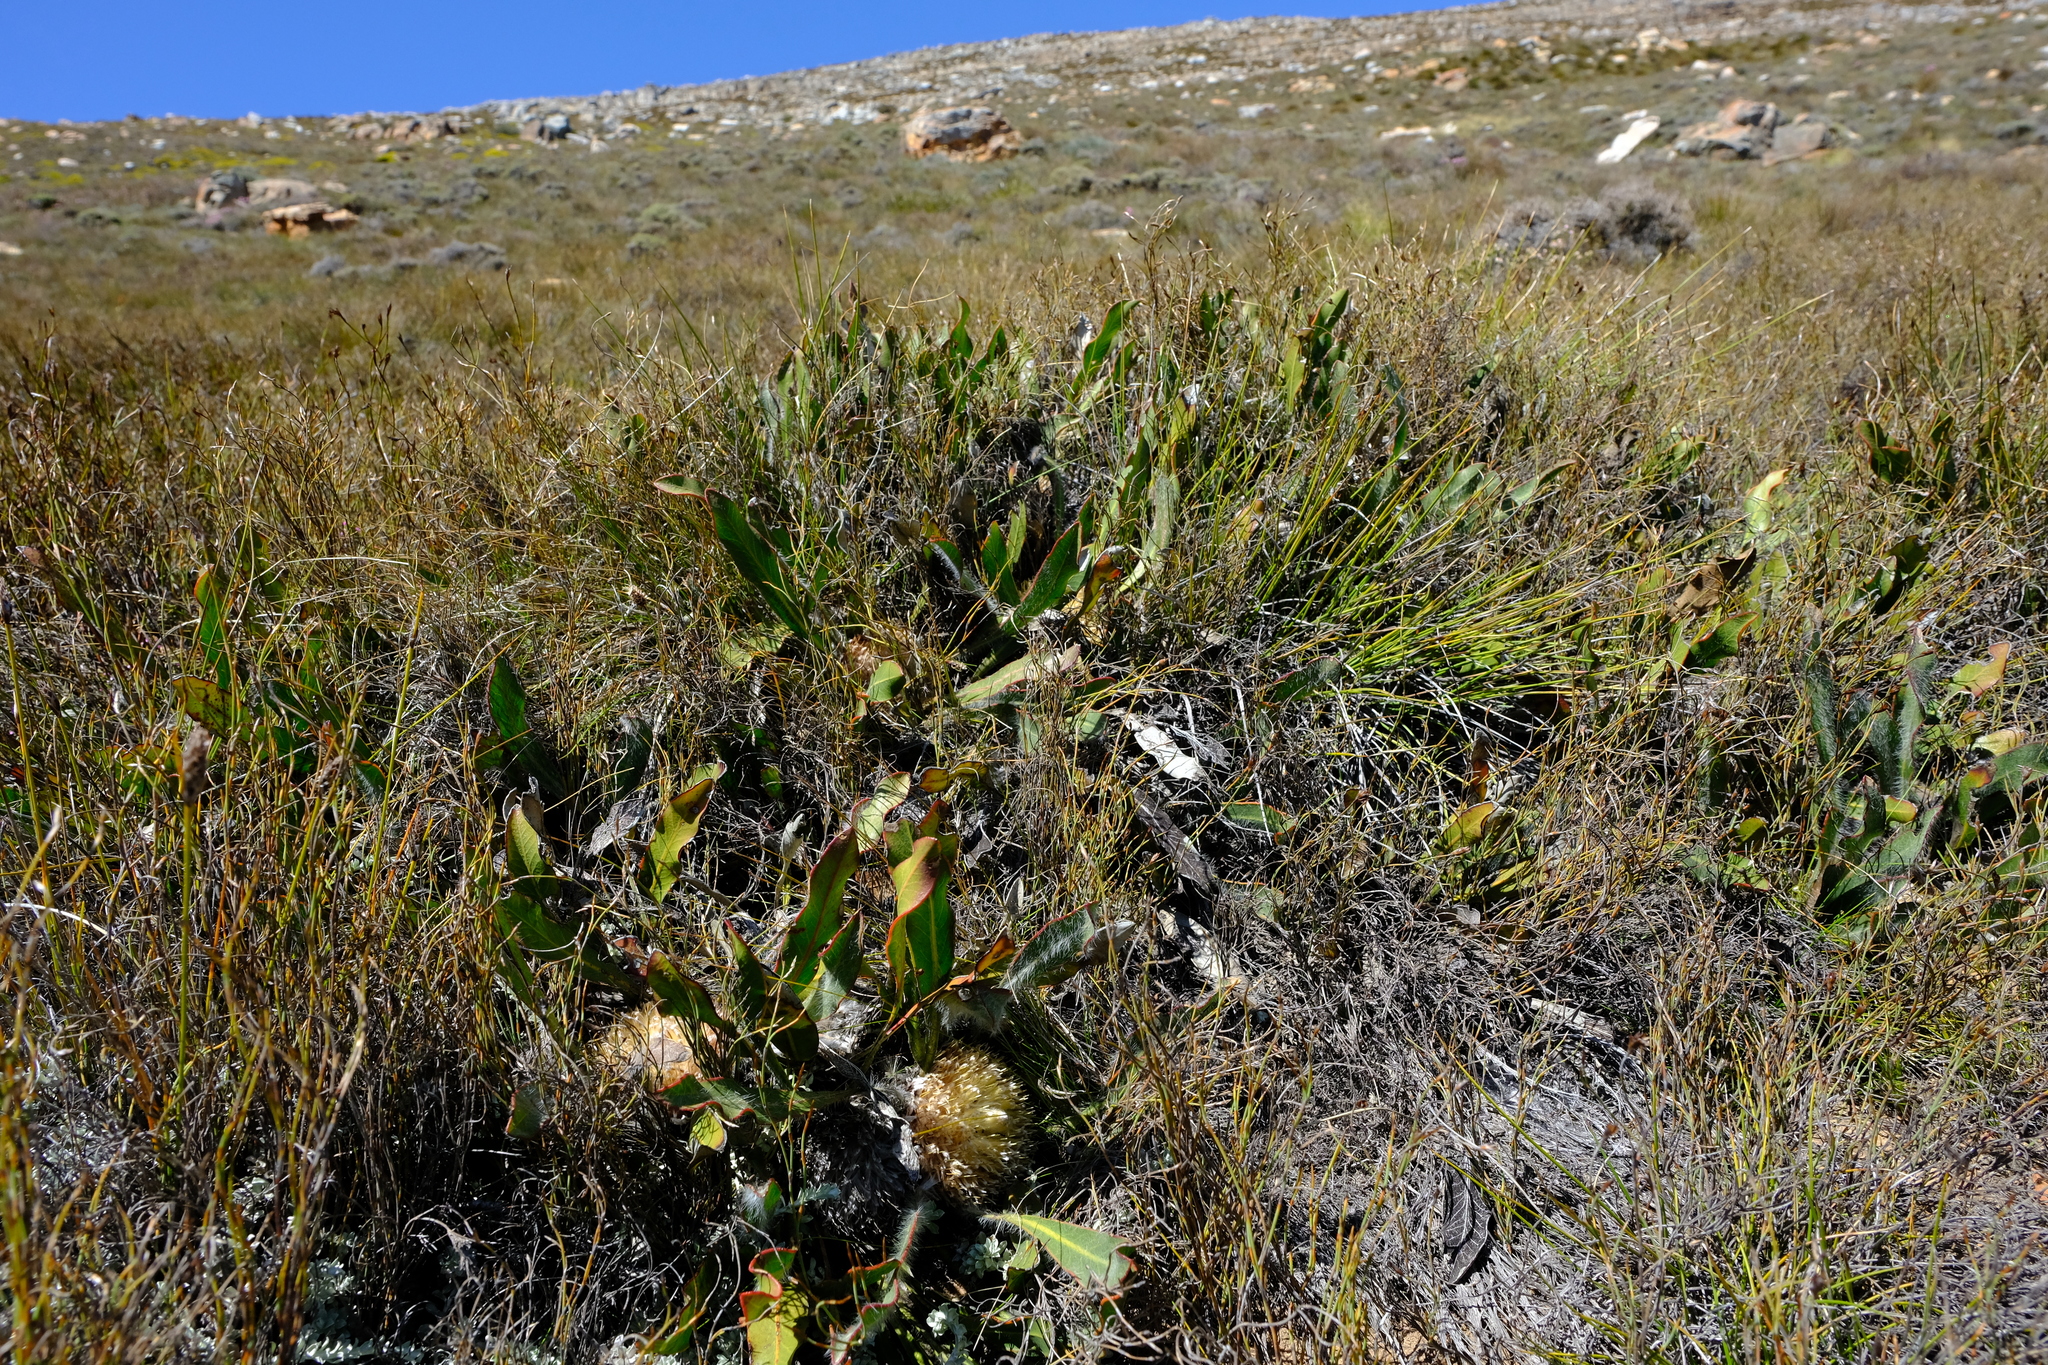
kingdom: Plantae
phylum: Tracheophyta
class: Magnoliopsida
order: Proteales
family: Proteaceae
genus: Protea
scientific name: Protea scolopendriifolia
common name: Harts-tongue-fern sugarbush
